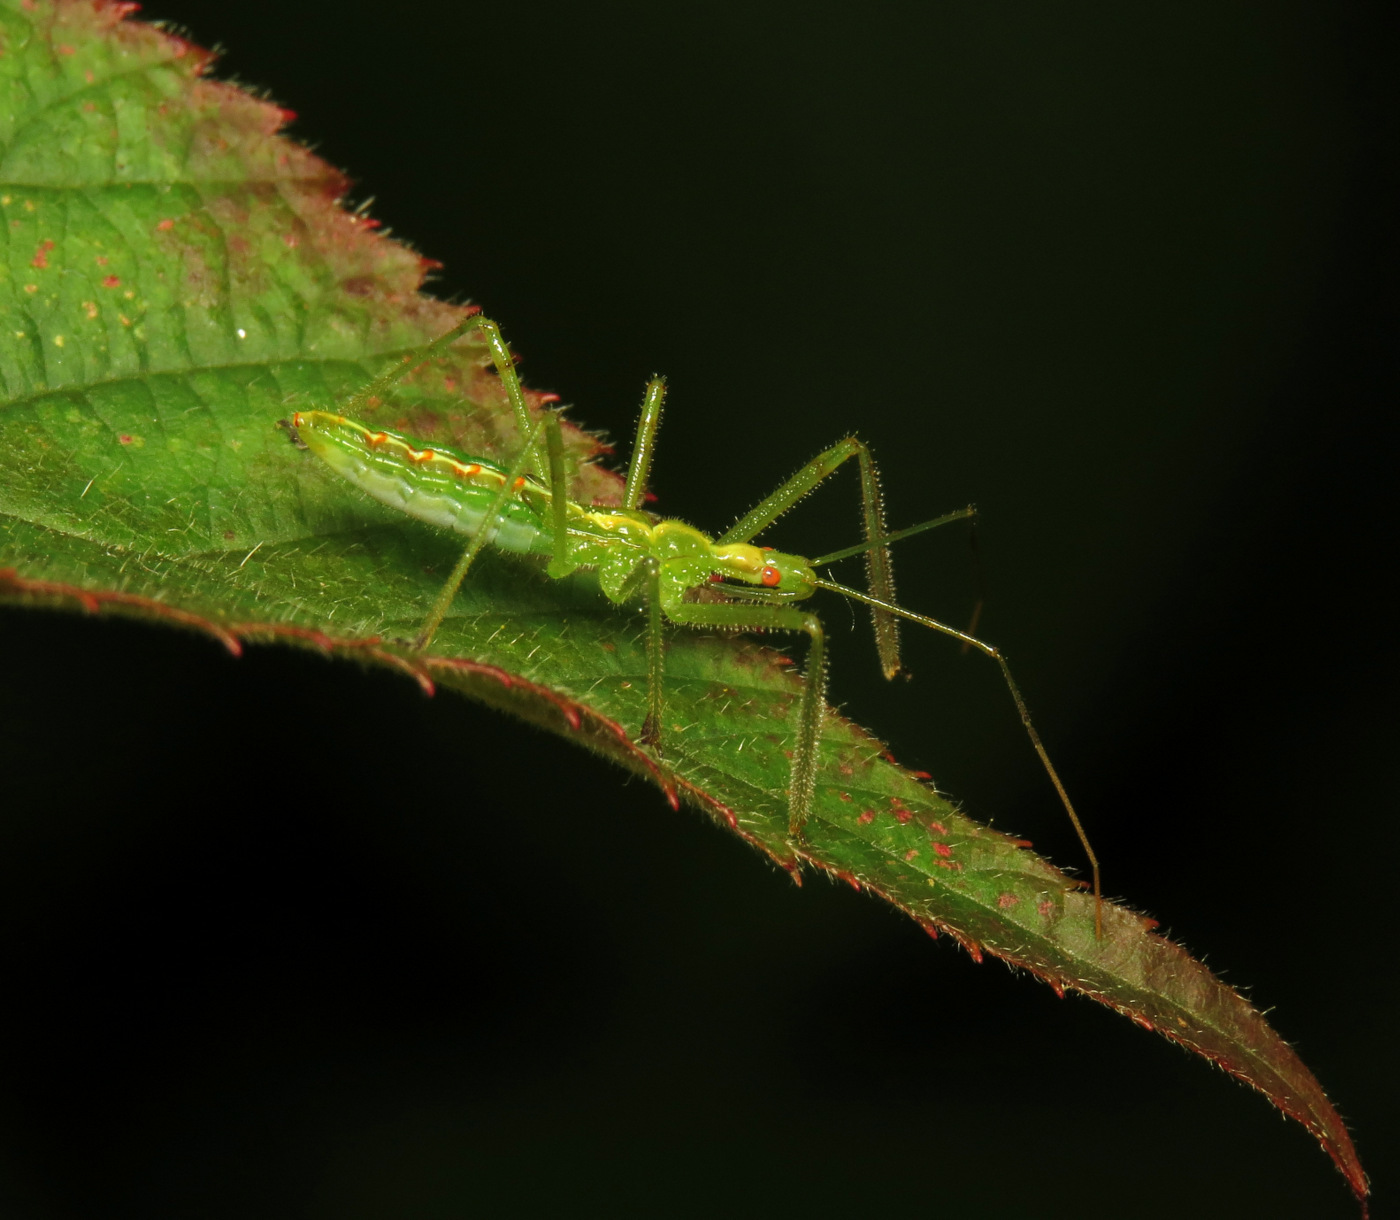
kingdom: Animalia
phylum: Arthropoda
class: Insecta
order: Hemiptera
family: Reduviidae
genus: Zelus
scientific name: Zelus luridus
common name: Pale green assassin bug
